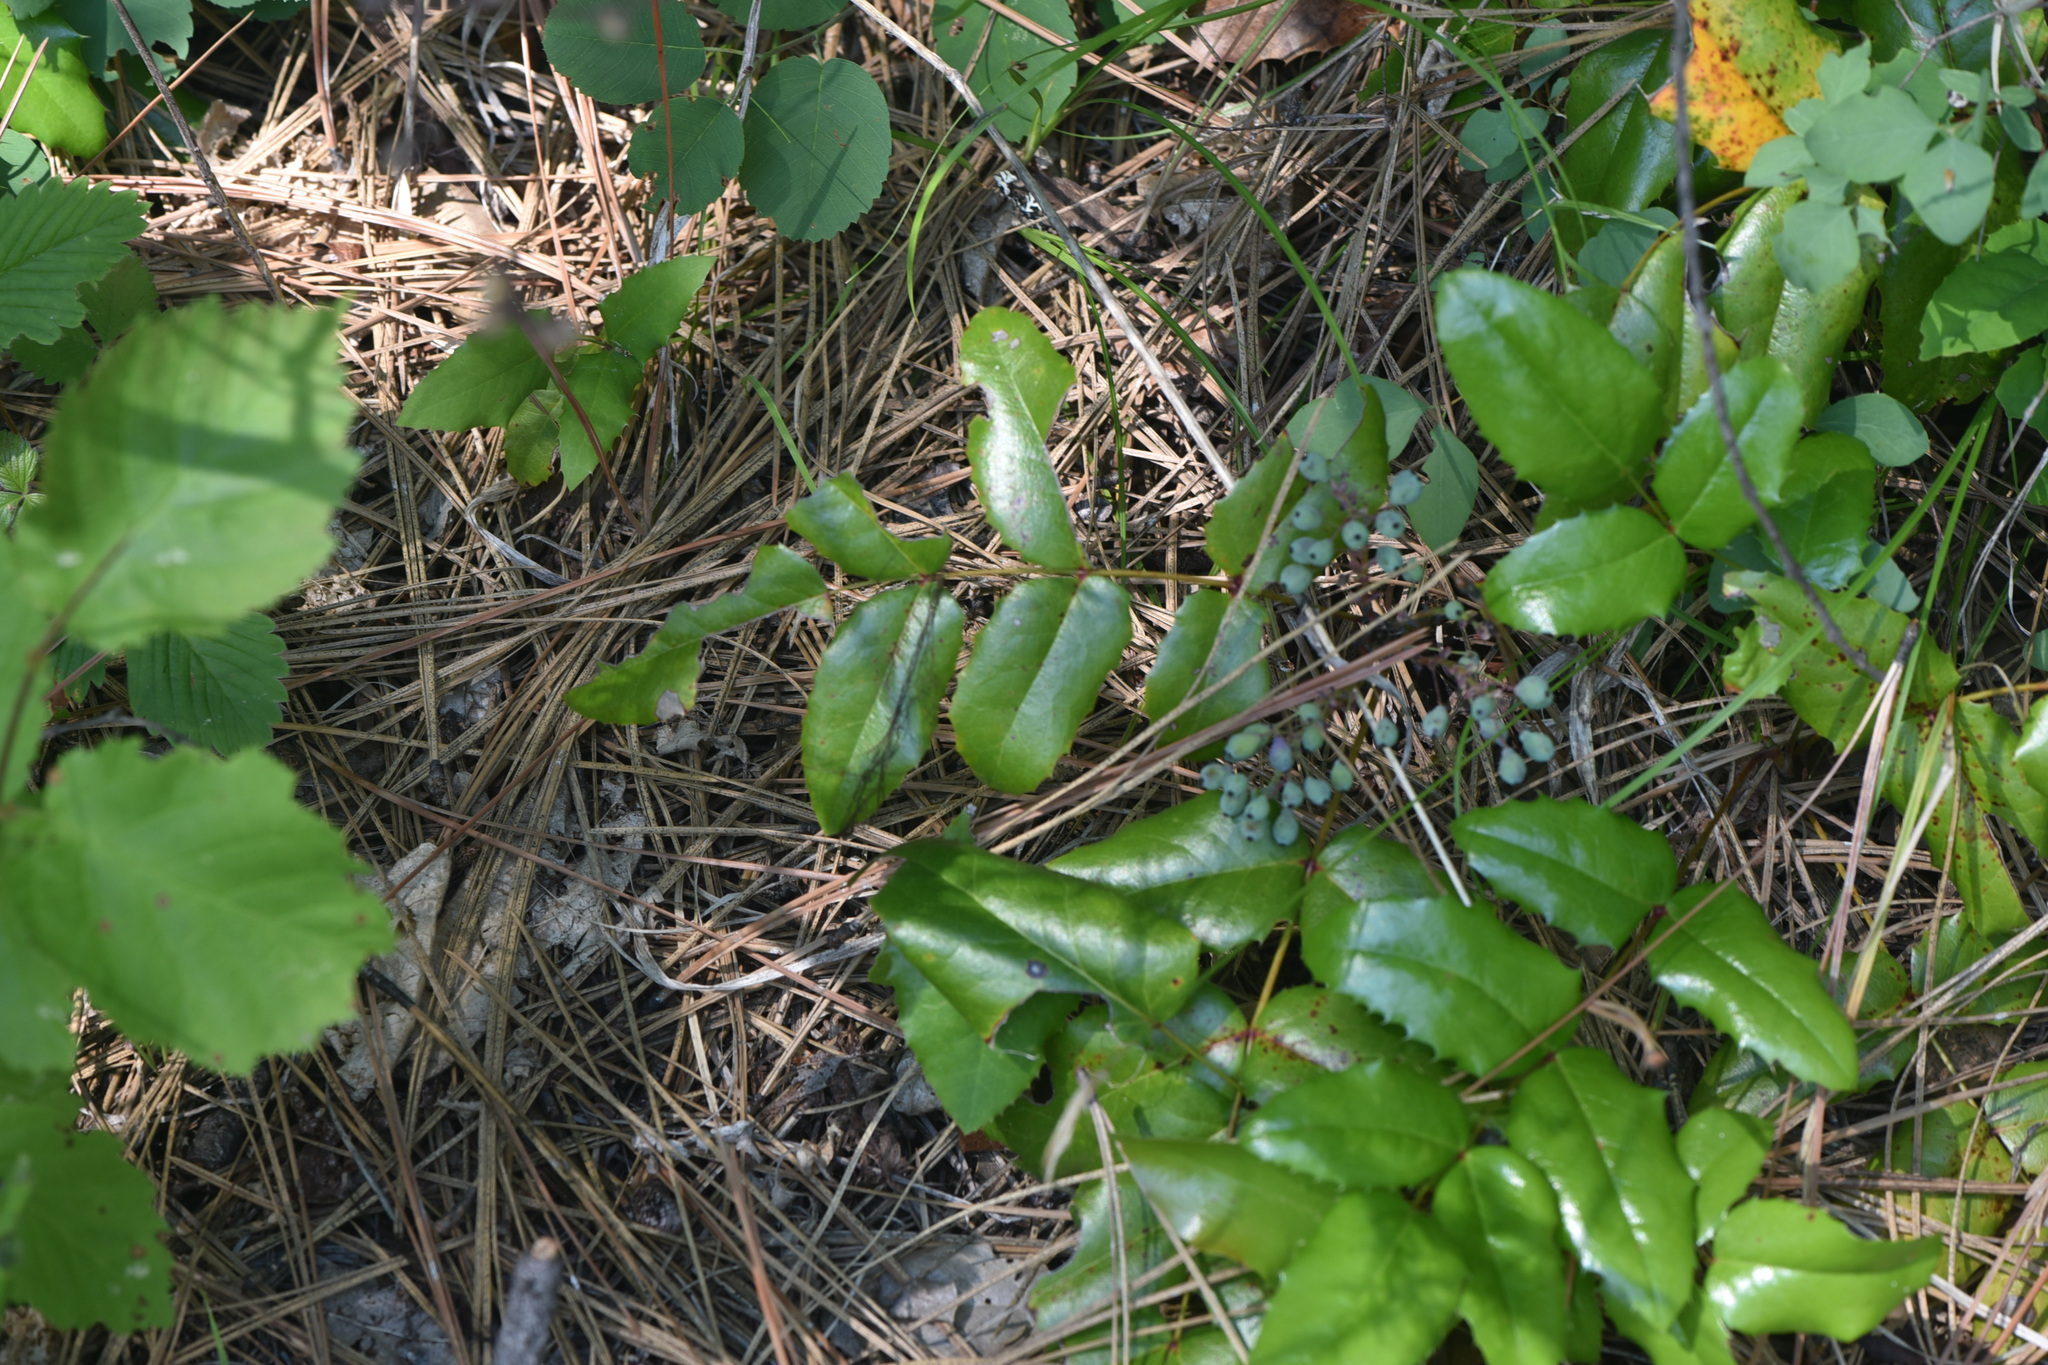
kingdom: Plantae
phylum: Tracheophyta
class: Magnoliopsida
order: Ranunculales
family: Berberidaceae
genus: Mahonia
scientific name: Mahonia aquifolium
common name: Oregon-grape
